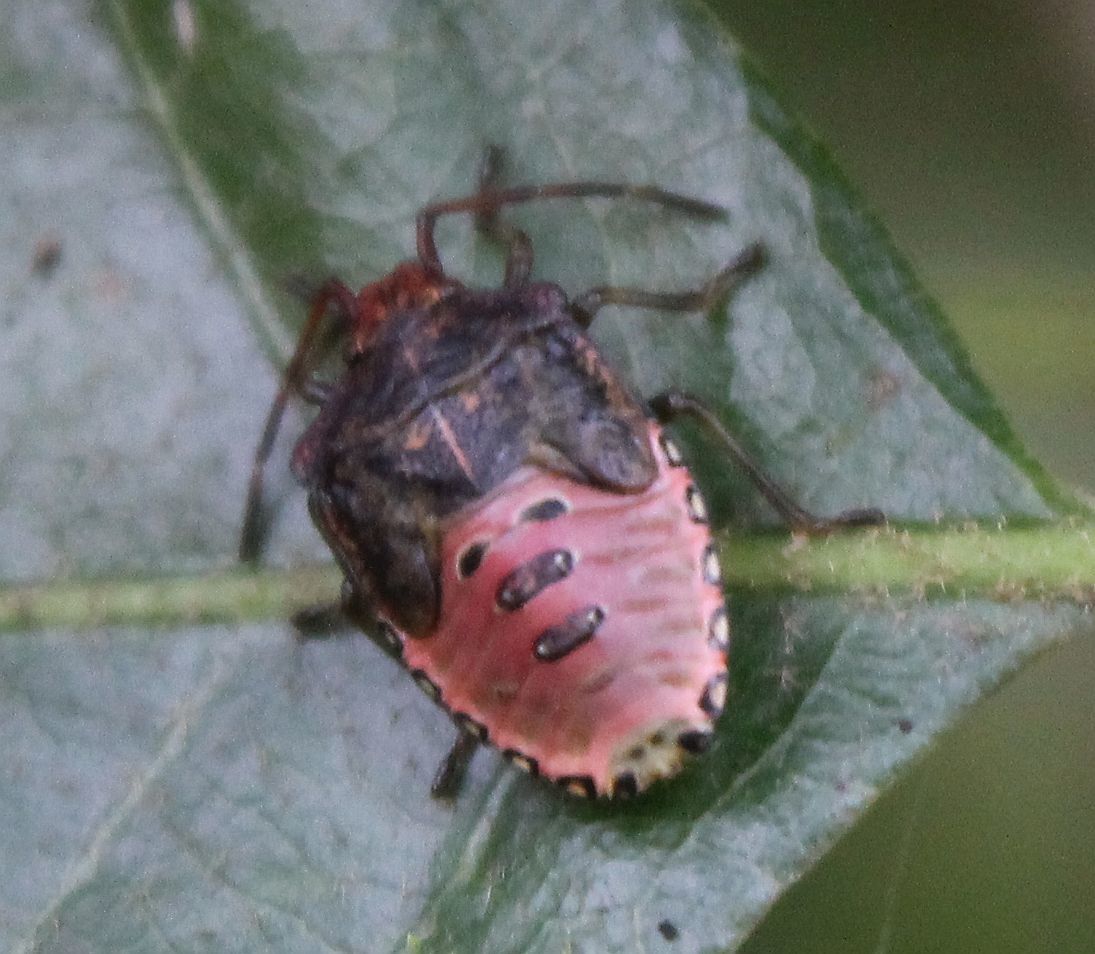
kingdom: Animalia
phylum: Arthropoda
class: Insecta
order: Hemiptera
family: Acanthosomatidae
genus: Acanthosoma
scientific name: Acanthosoma haemorrhoidale
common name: Hawthorn shieldbug
